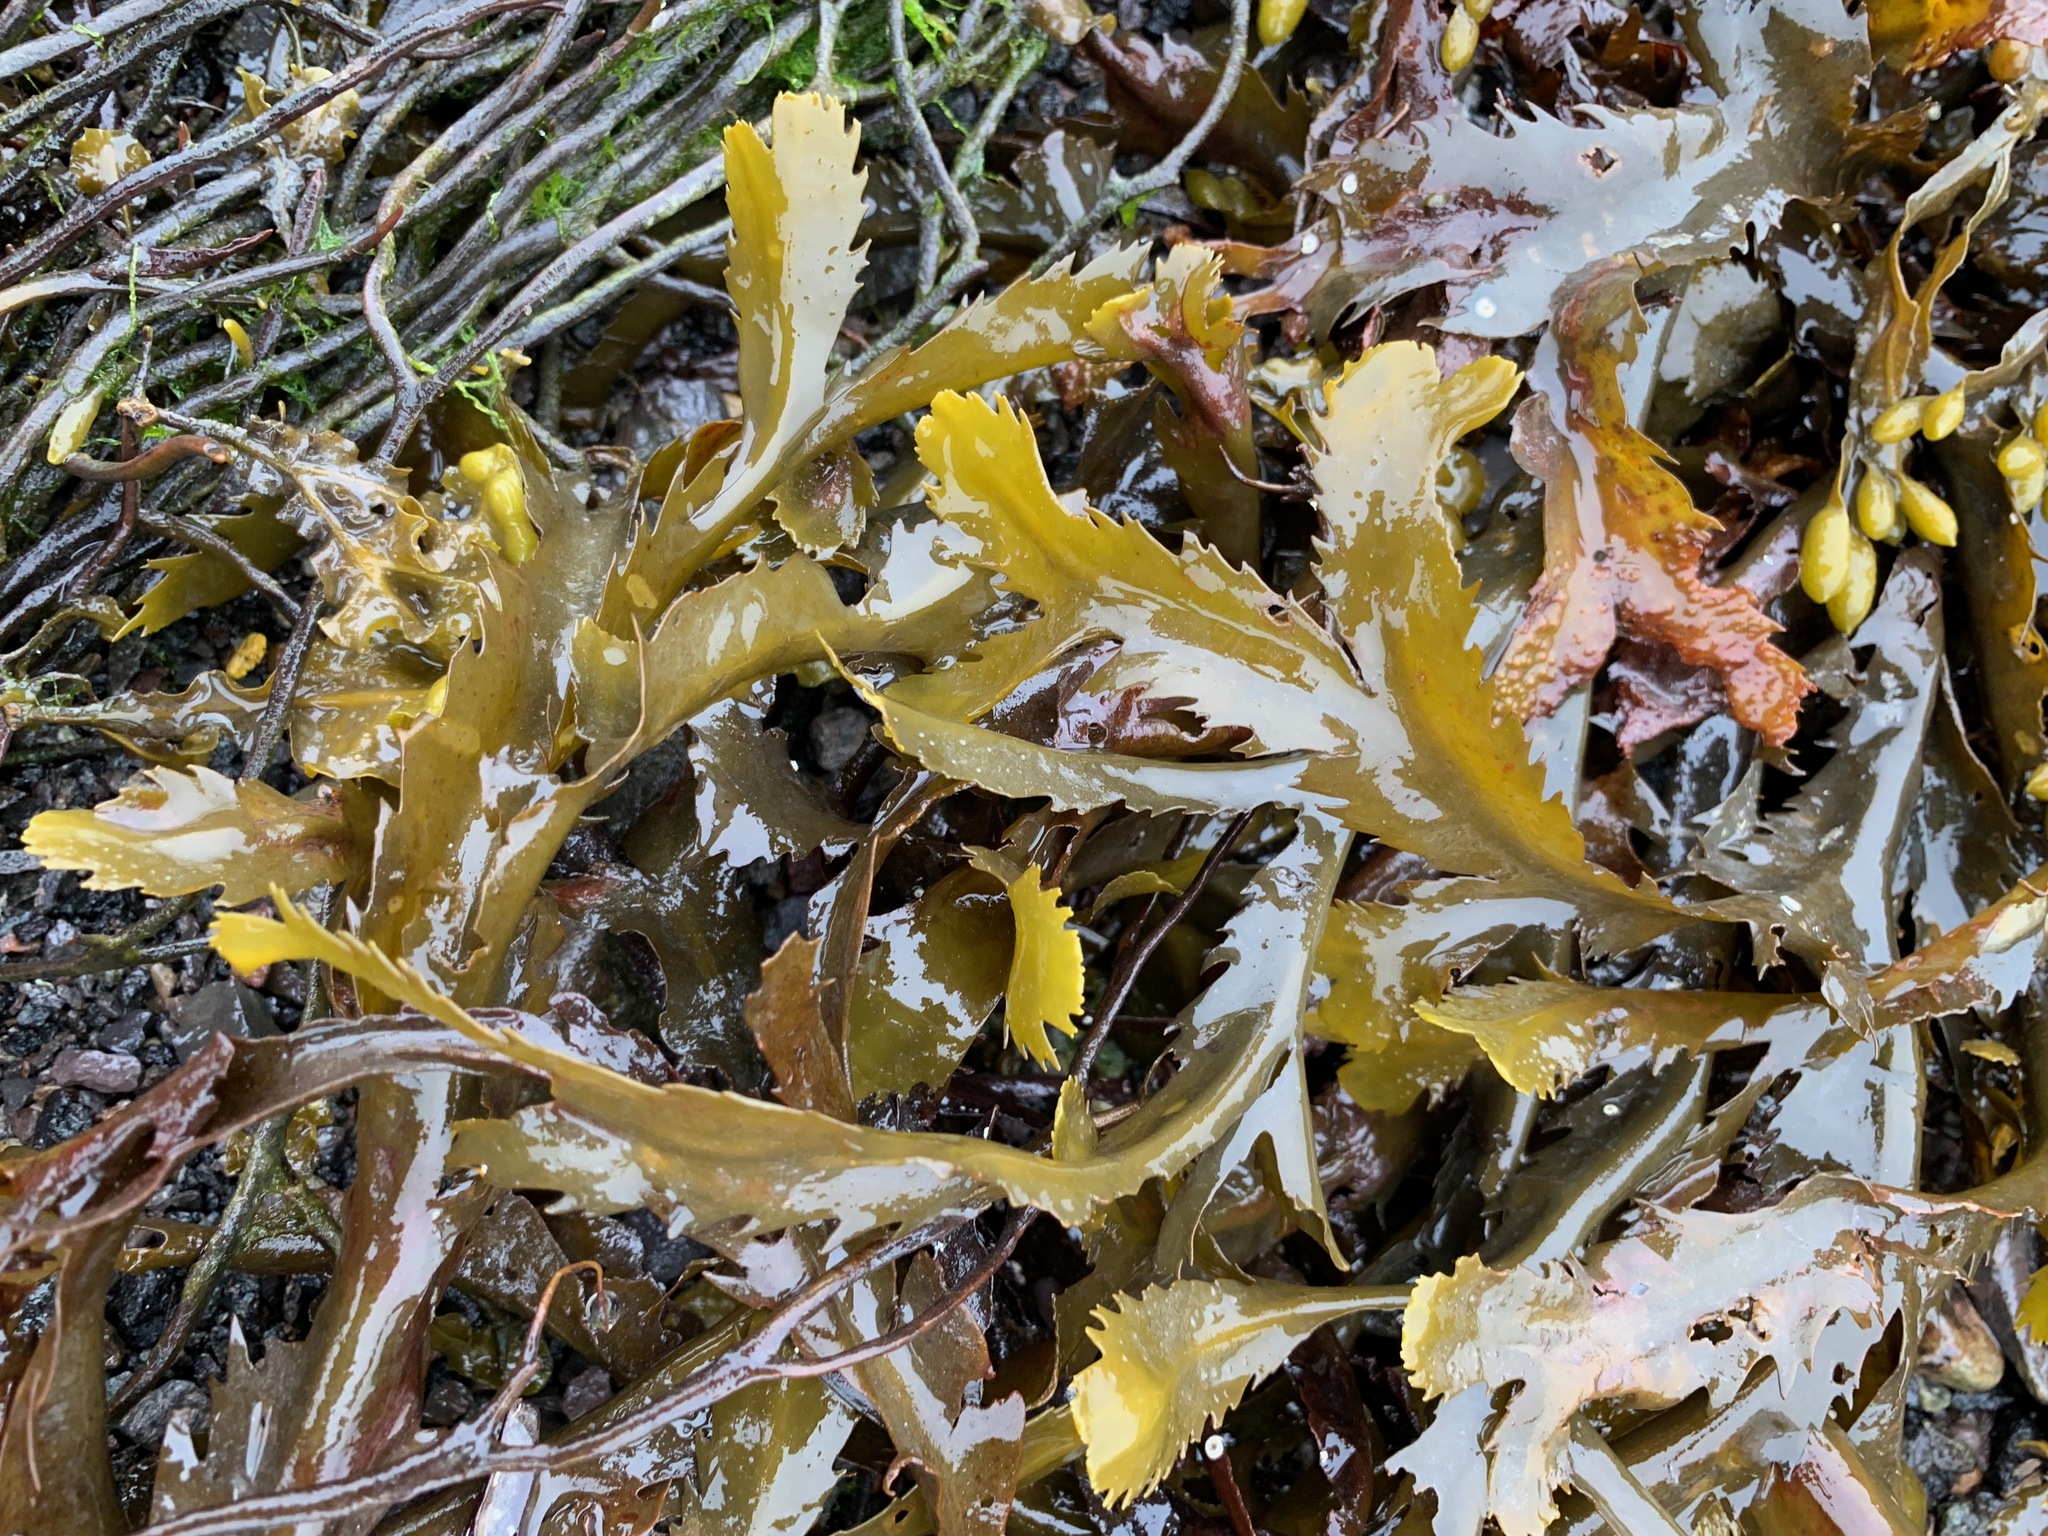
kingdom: Chromista
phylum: Ochrophyta
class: Phaeophyceae
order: Fucales
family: Fucaceae
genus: Fucus
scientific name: Fucus serratus
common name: Toothed wrack
